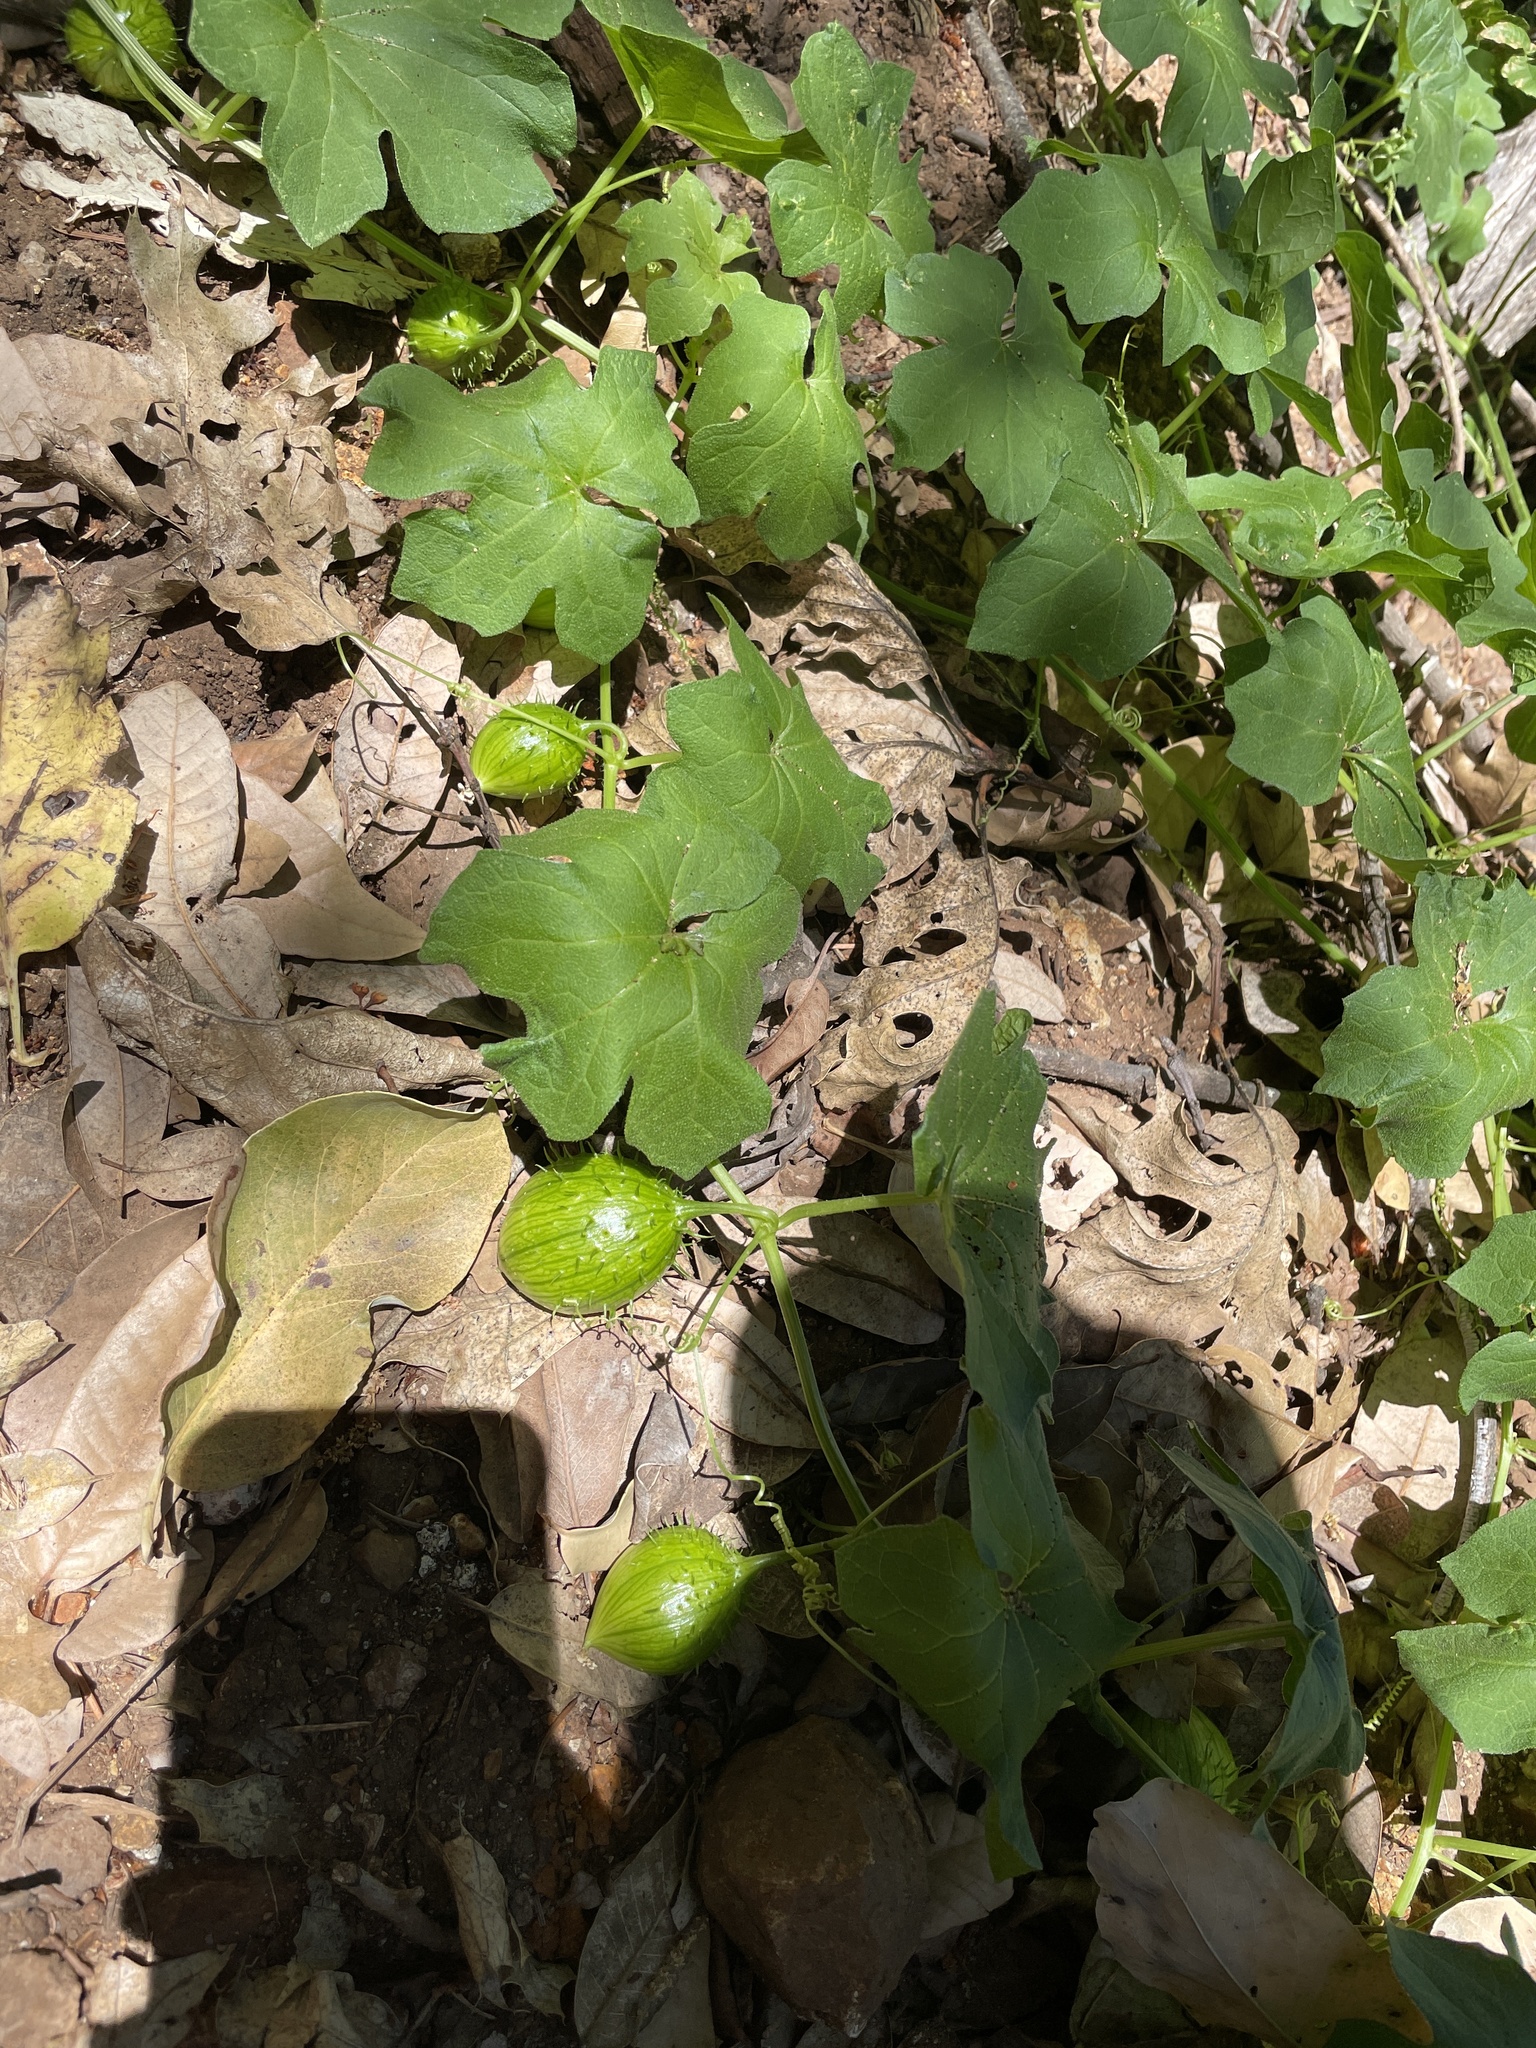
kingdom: Plantae
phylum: Tracheophyta
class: Magnoliopsida
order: Cucurbitales
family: Cucurbitaceae
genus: Marah
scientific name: Marah oregana
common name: Coastal manroot
